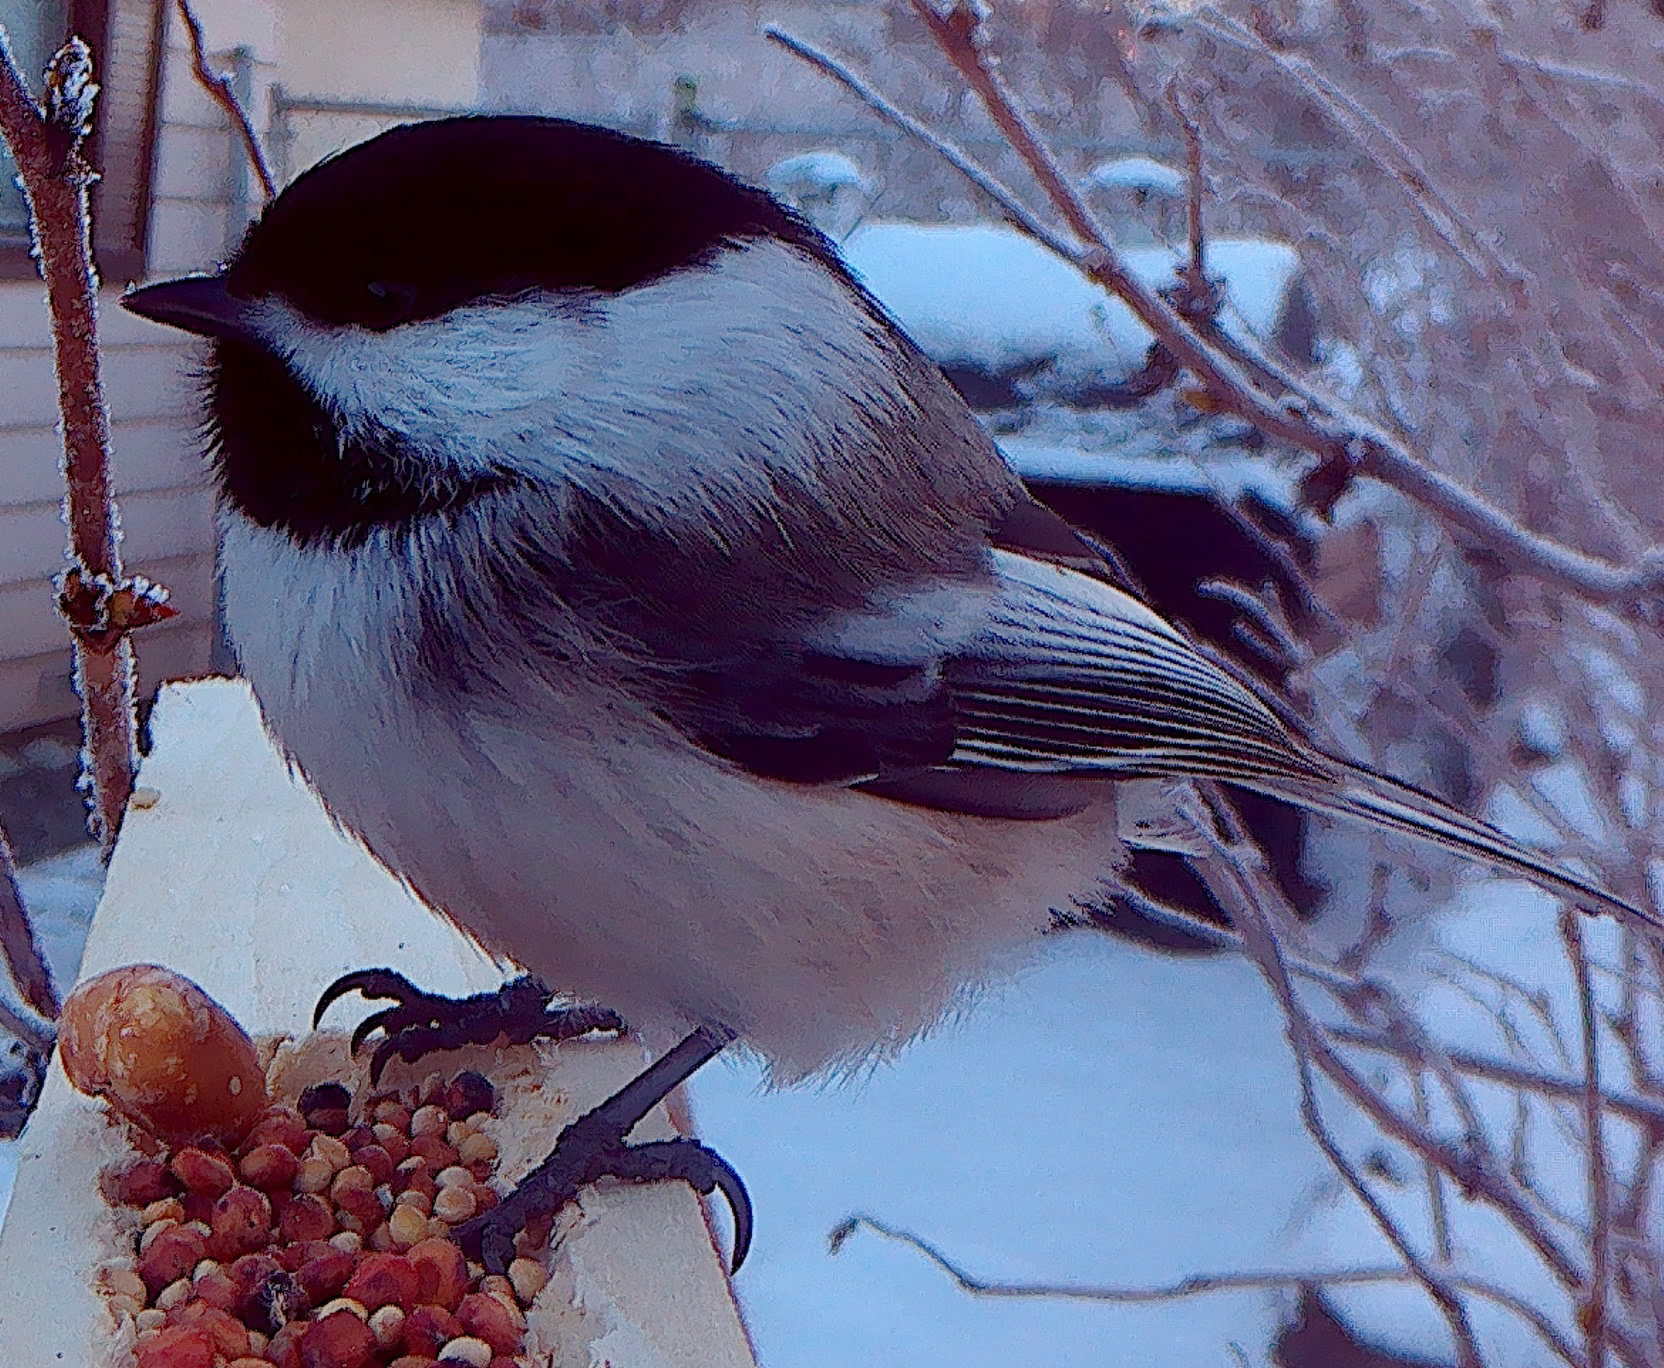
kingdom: Animalia
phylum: Chordata
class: Aves
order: Passeriformes
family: Paridae
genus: Poecile
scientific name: Poecile atricapillus
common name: Black-capped chickadee
